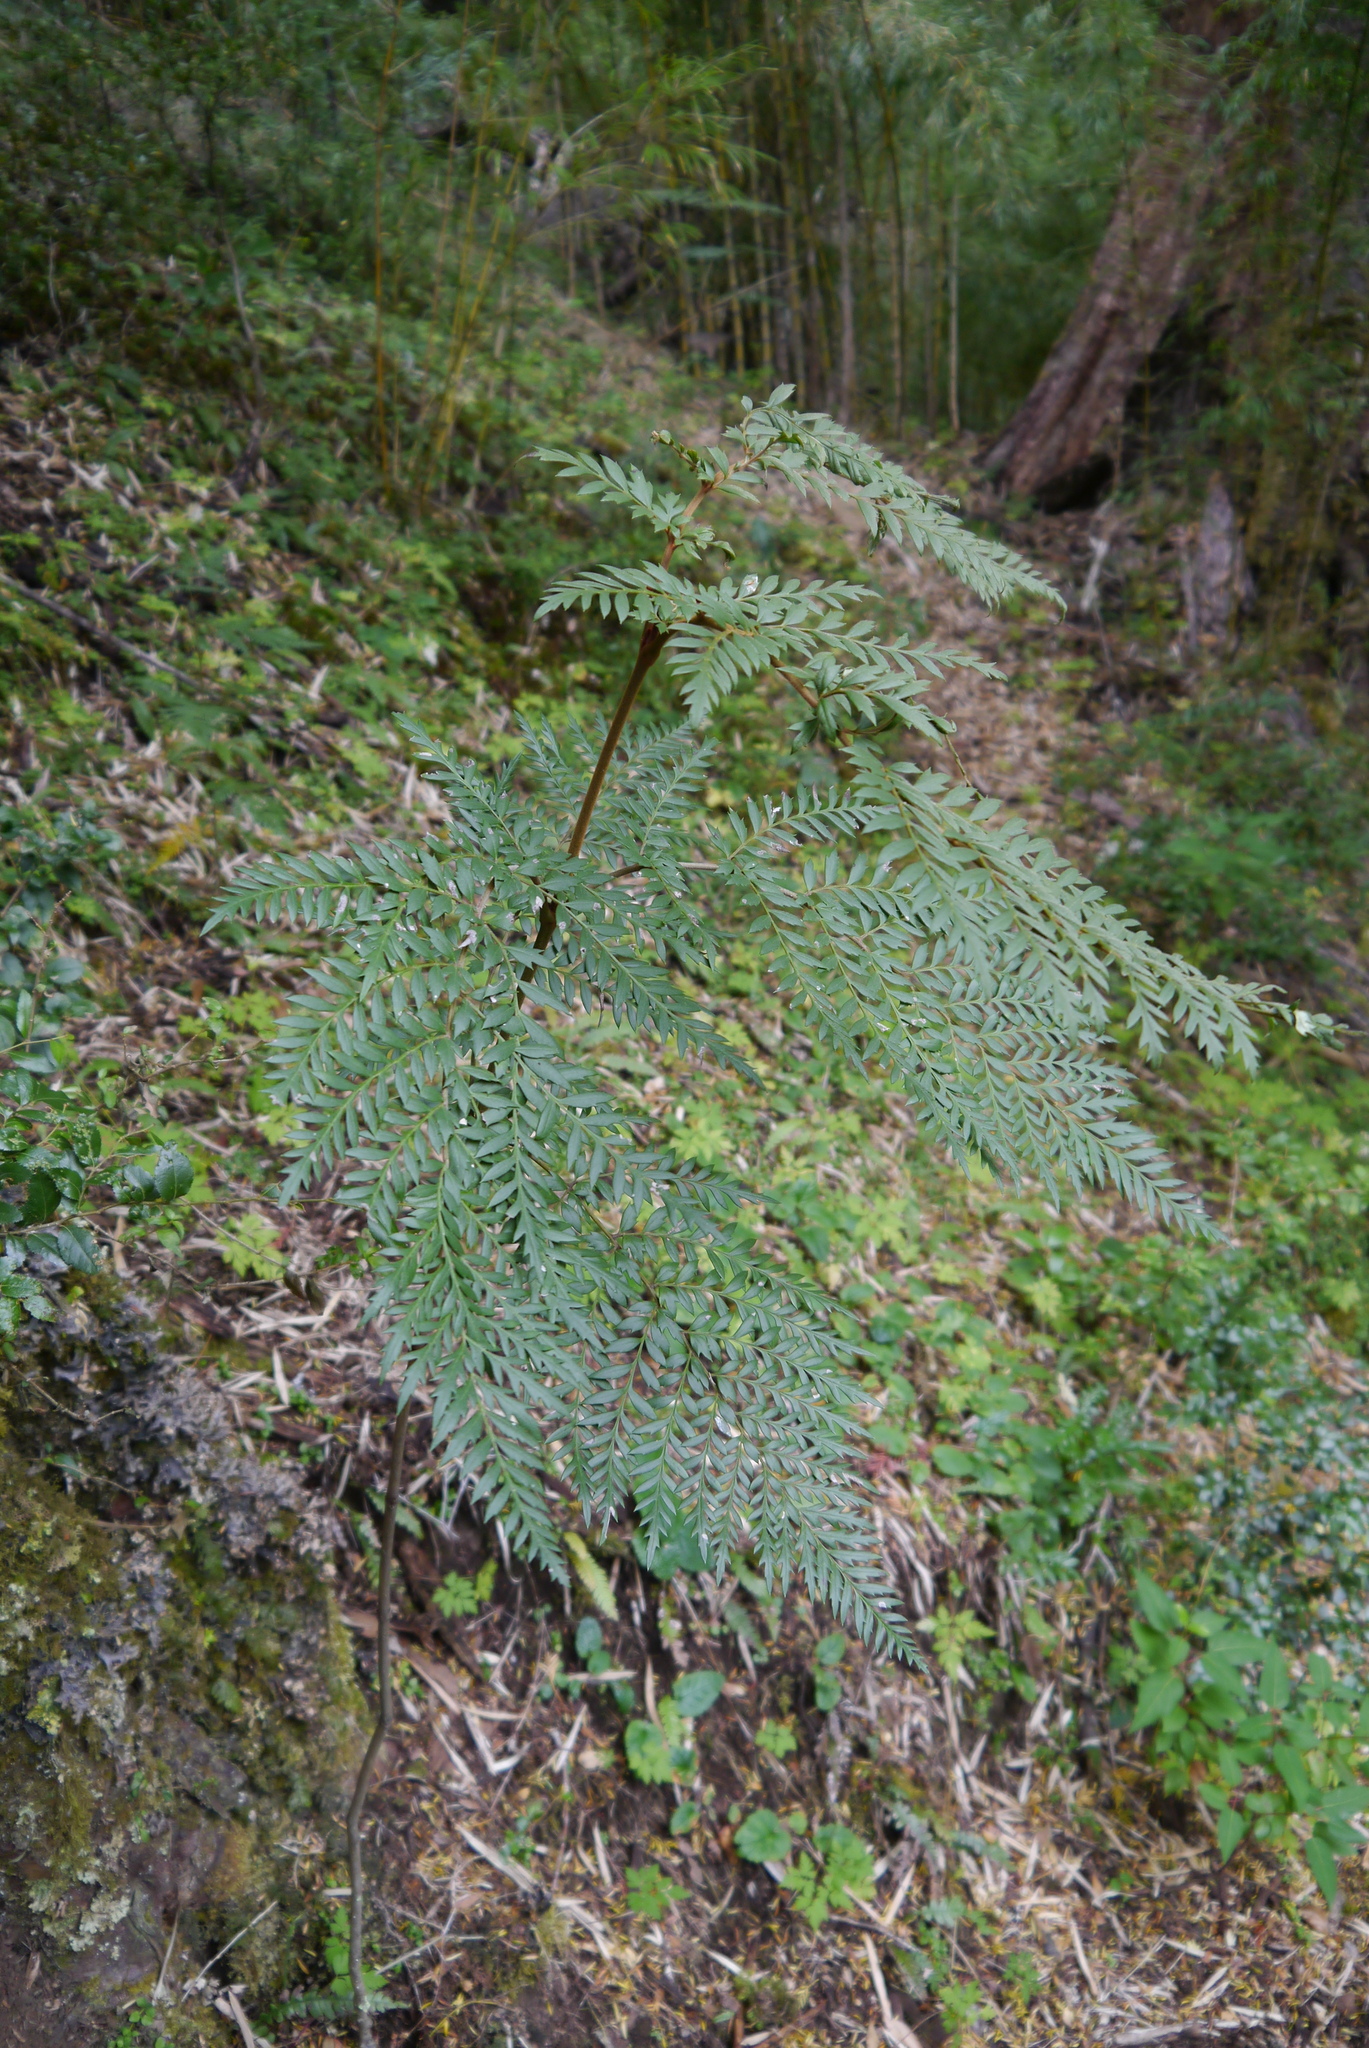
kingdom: Plantae
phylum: Tracheophyta
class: Magnoliopsida
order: Proteales
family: Proteaceae
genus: Lomatia
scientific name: Lomatia ferruginea
